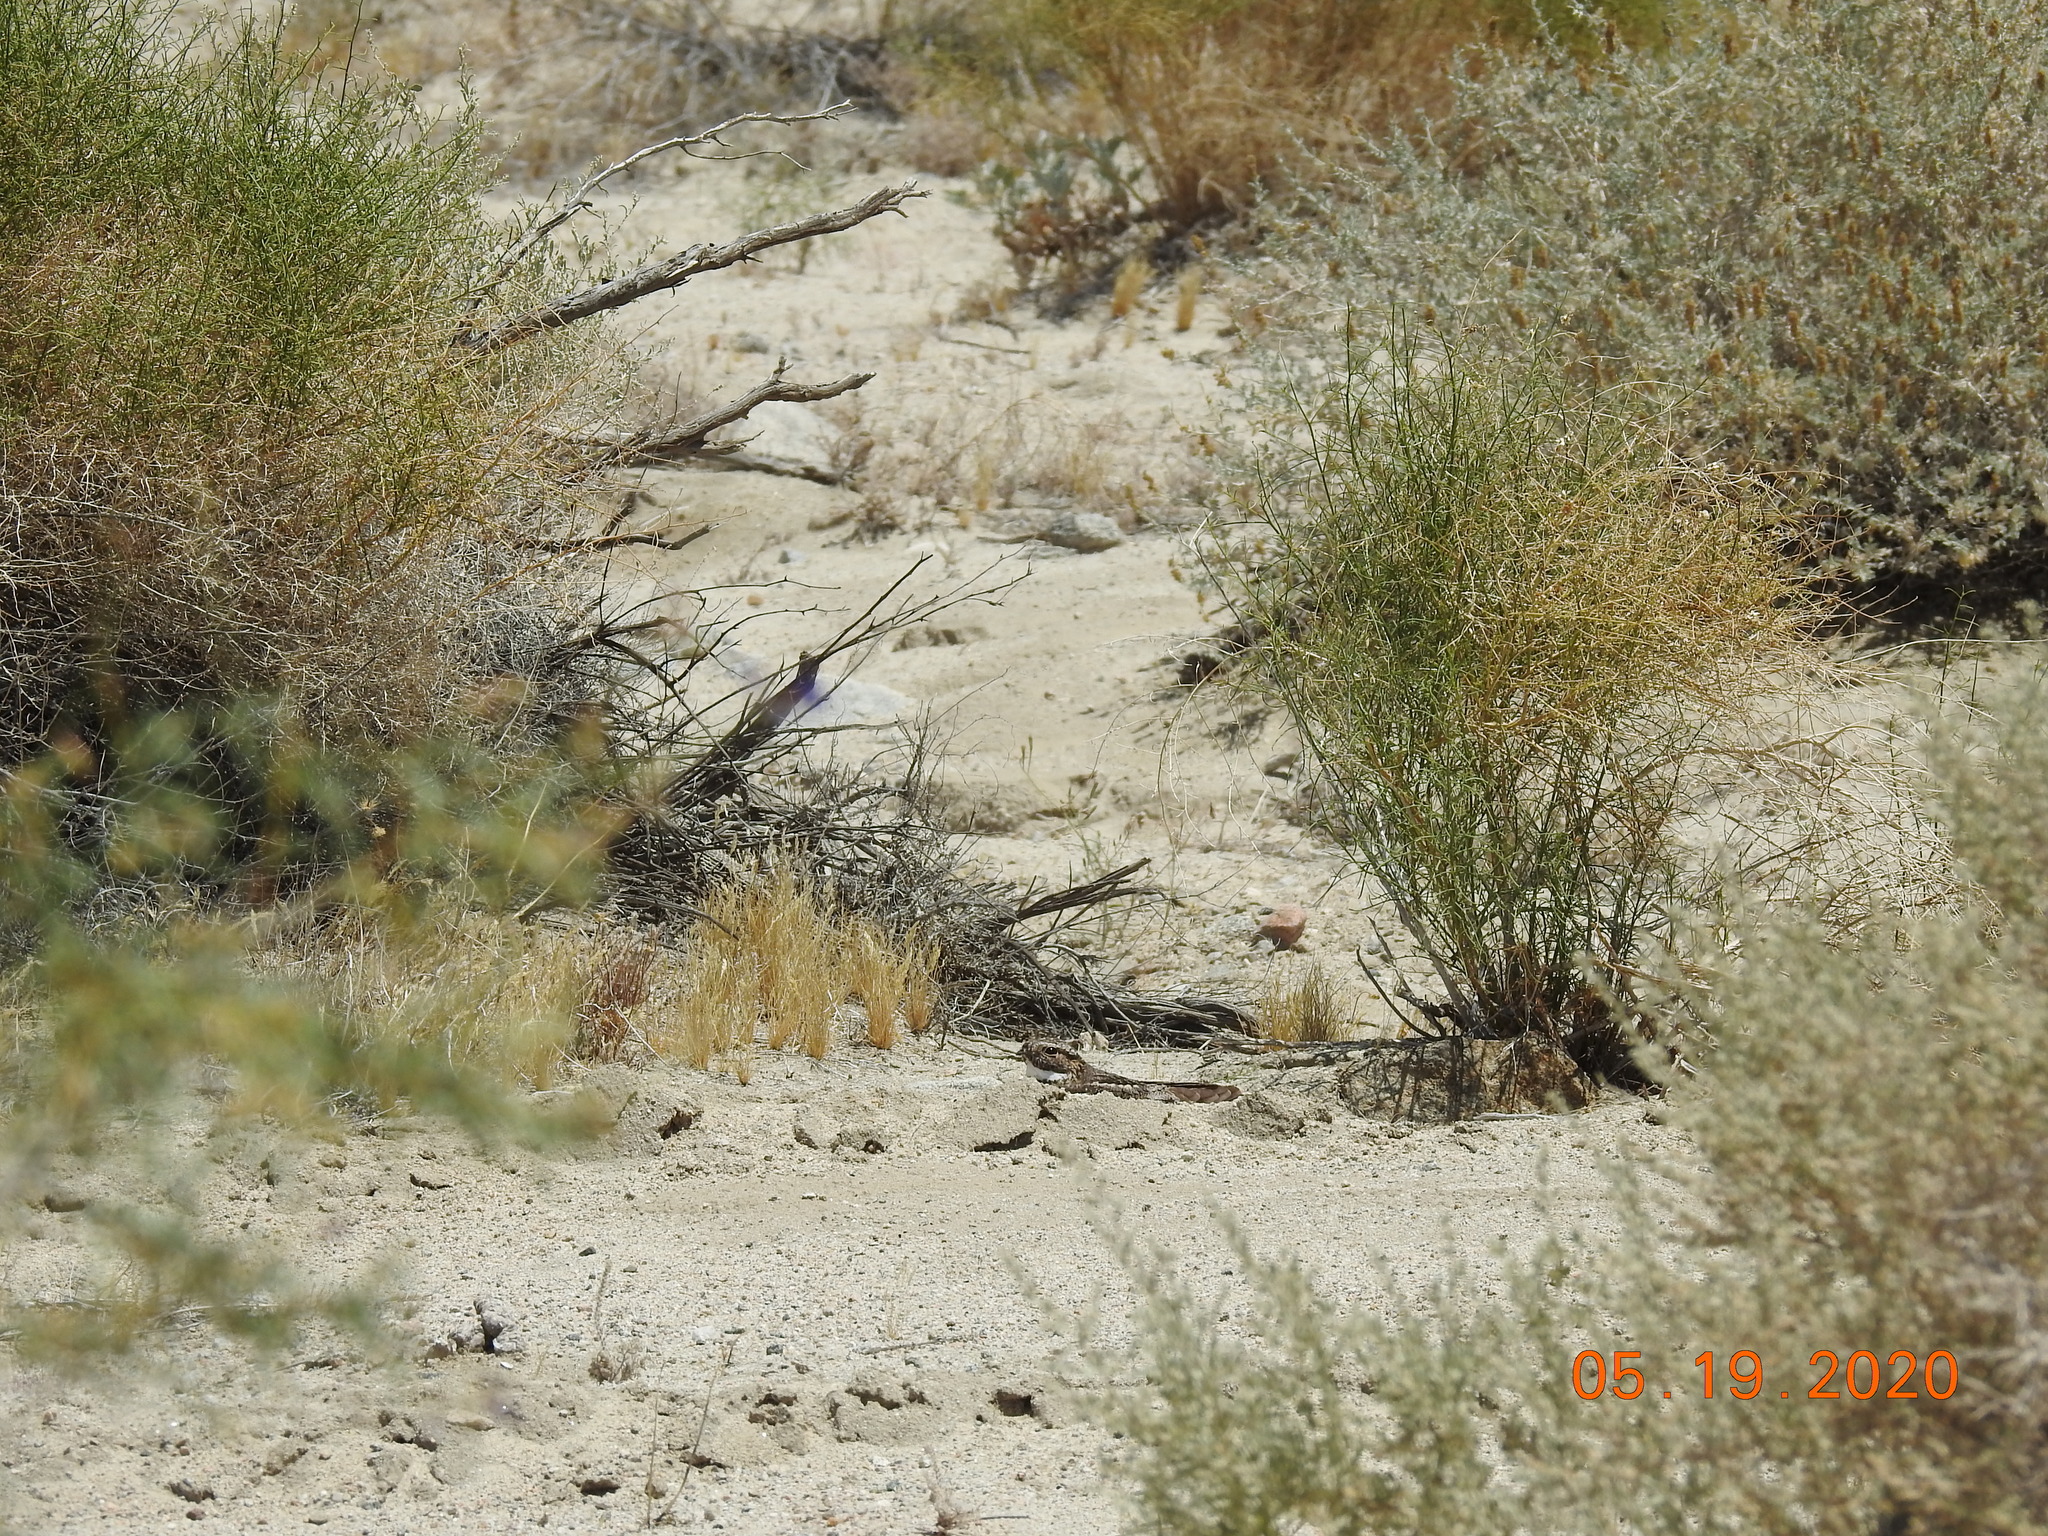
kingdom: Animalia
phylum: Chordata
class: Aves
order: Caprimulgiformes
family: Caprimulgidae
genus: Chordeiles
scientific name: Chordeiles acutipennis
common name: Lesser nighthawk
